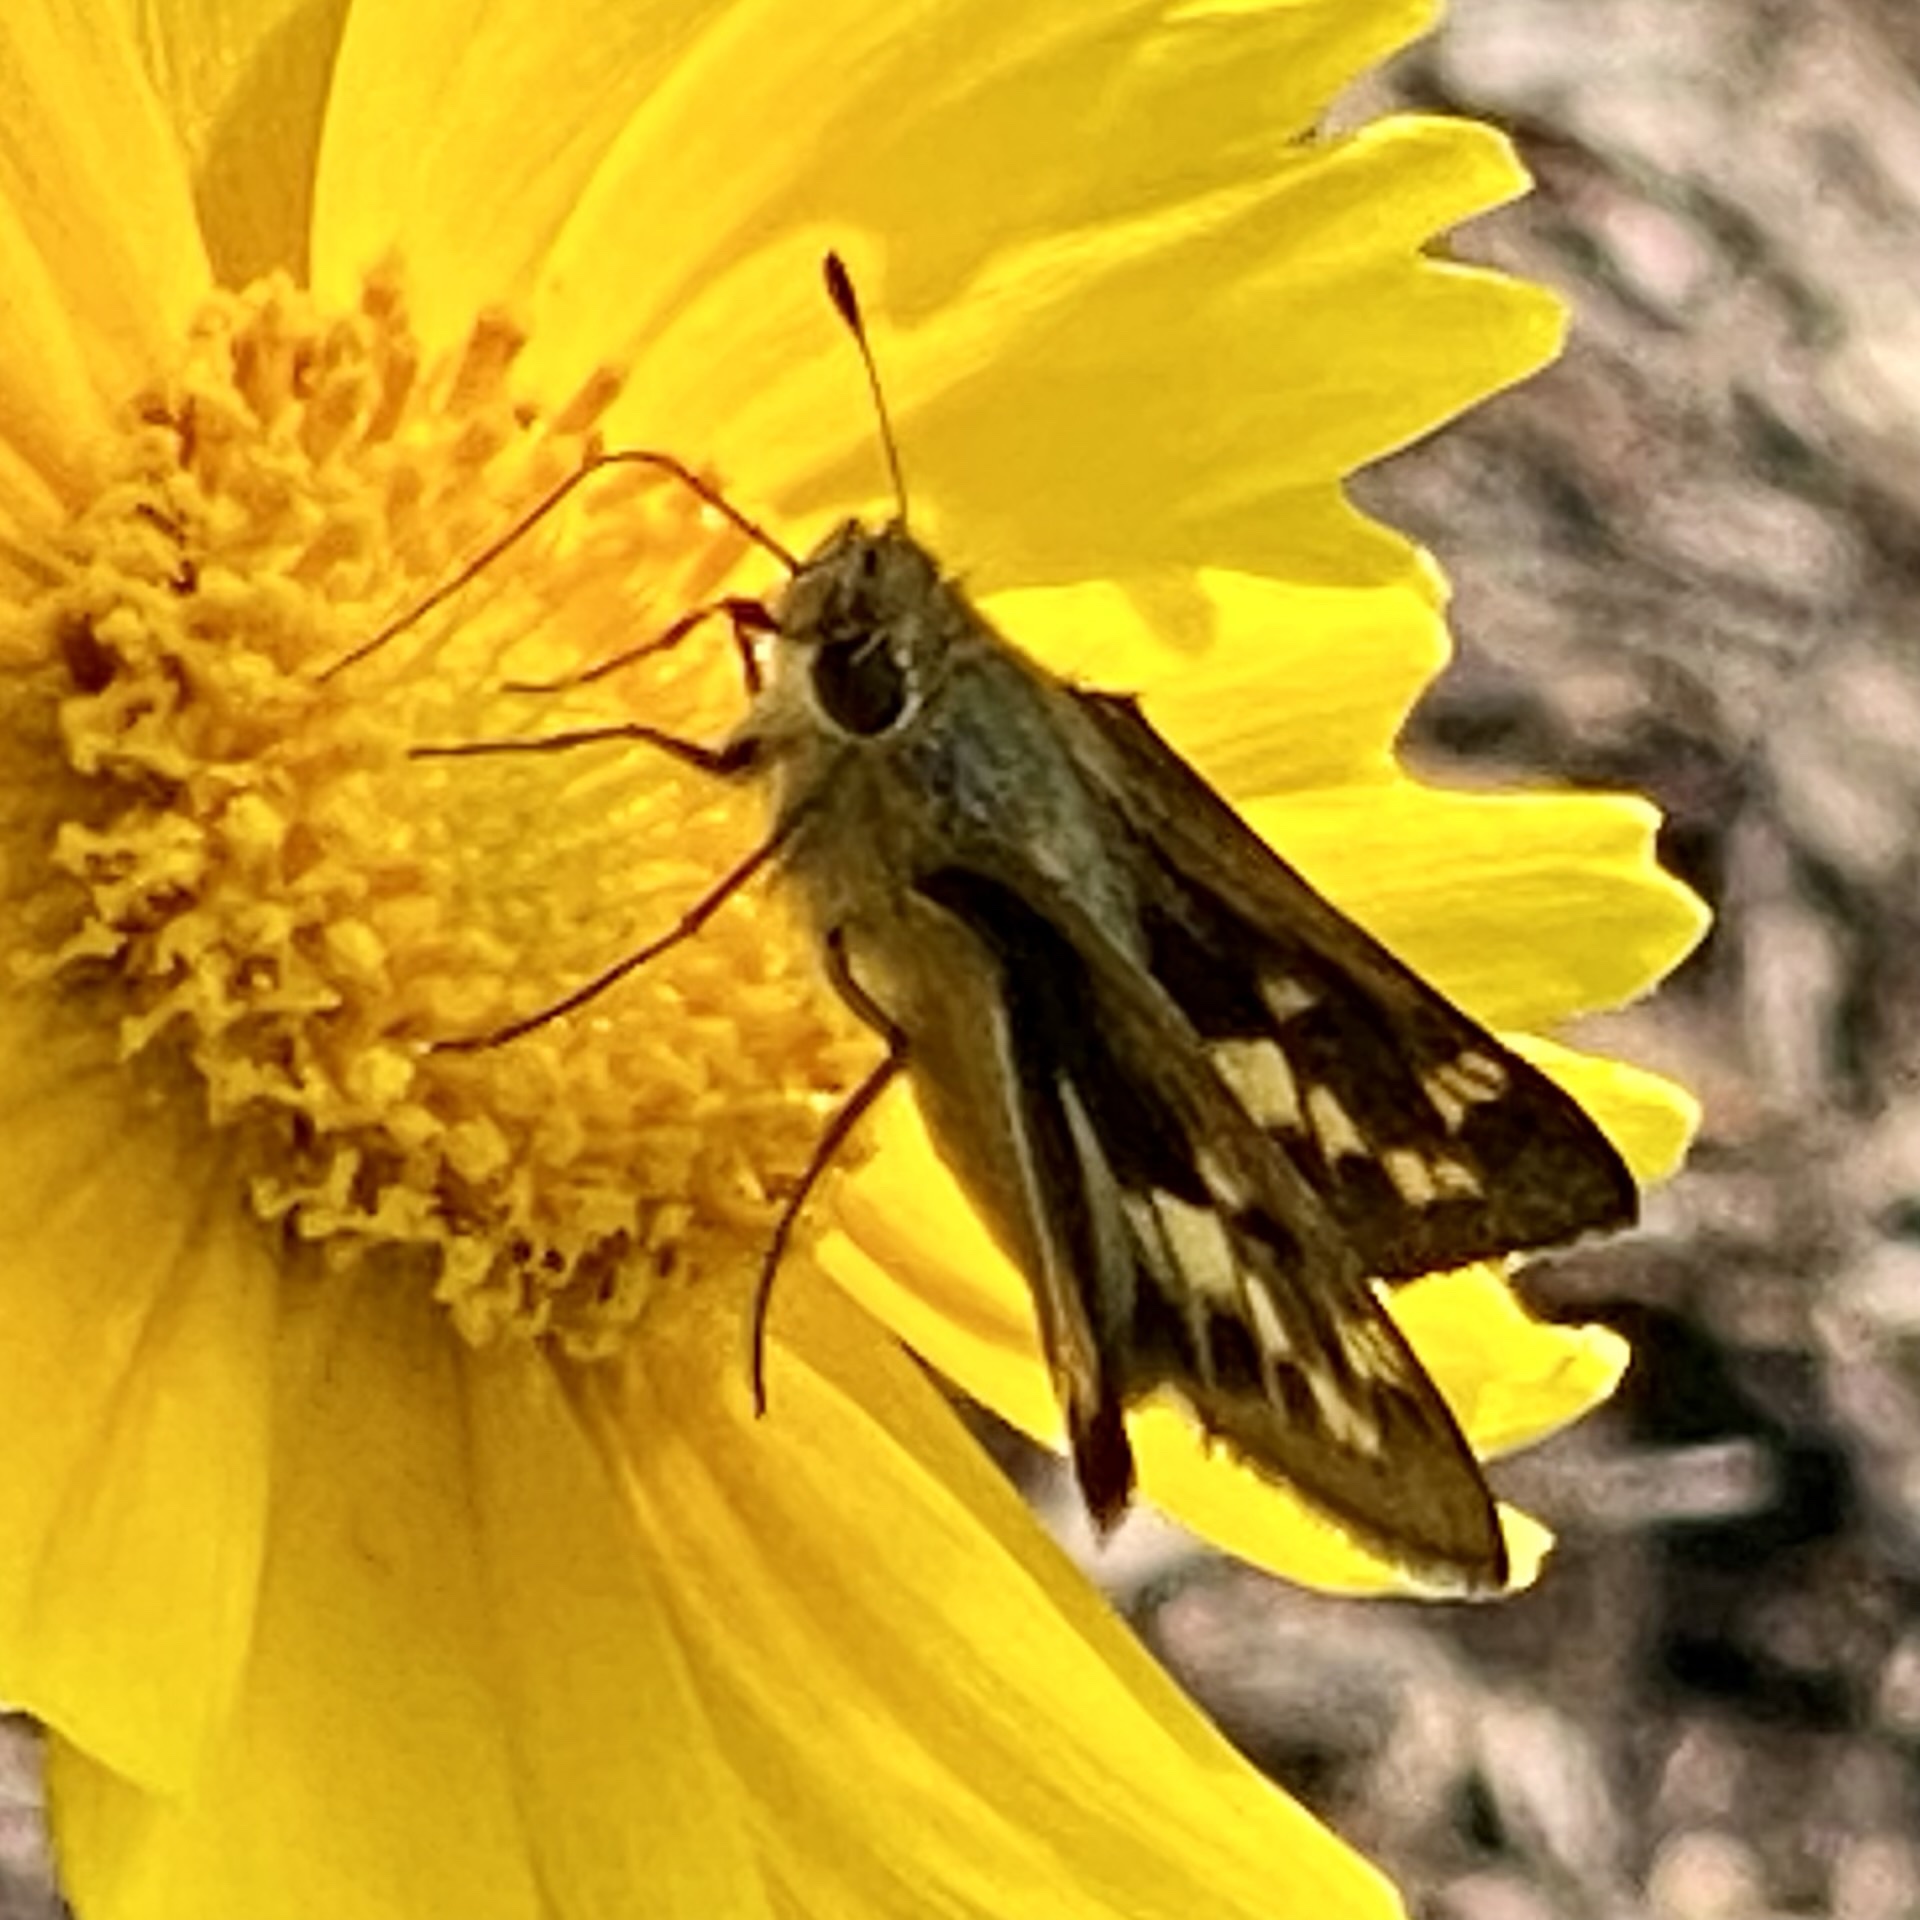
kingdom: Animalia
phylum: Arthropoda
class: Insecta
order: Lepidoptera
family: Hesperiidae
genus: Hylephila
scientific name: Hylephila phyleus
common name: Fiery skipper
